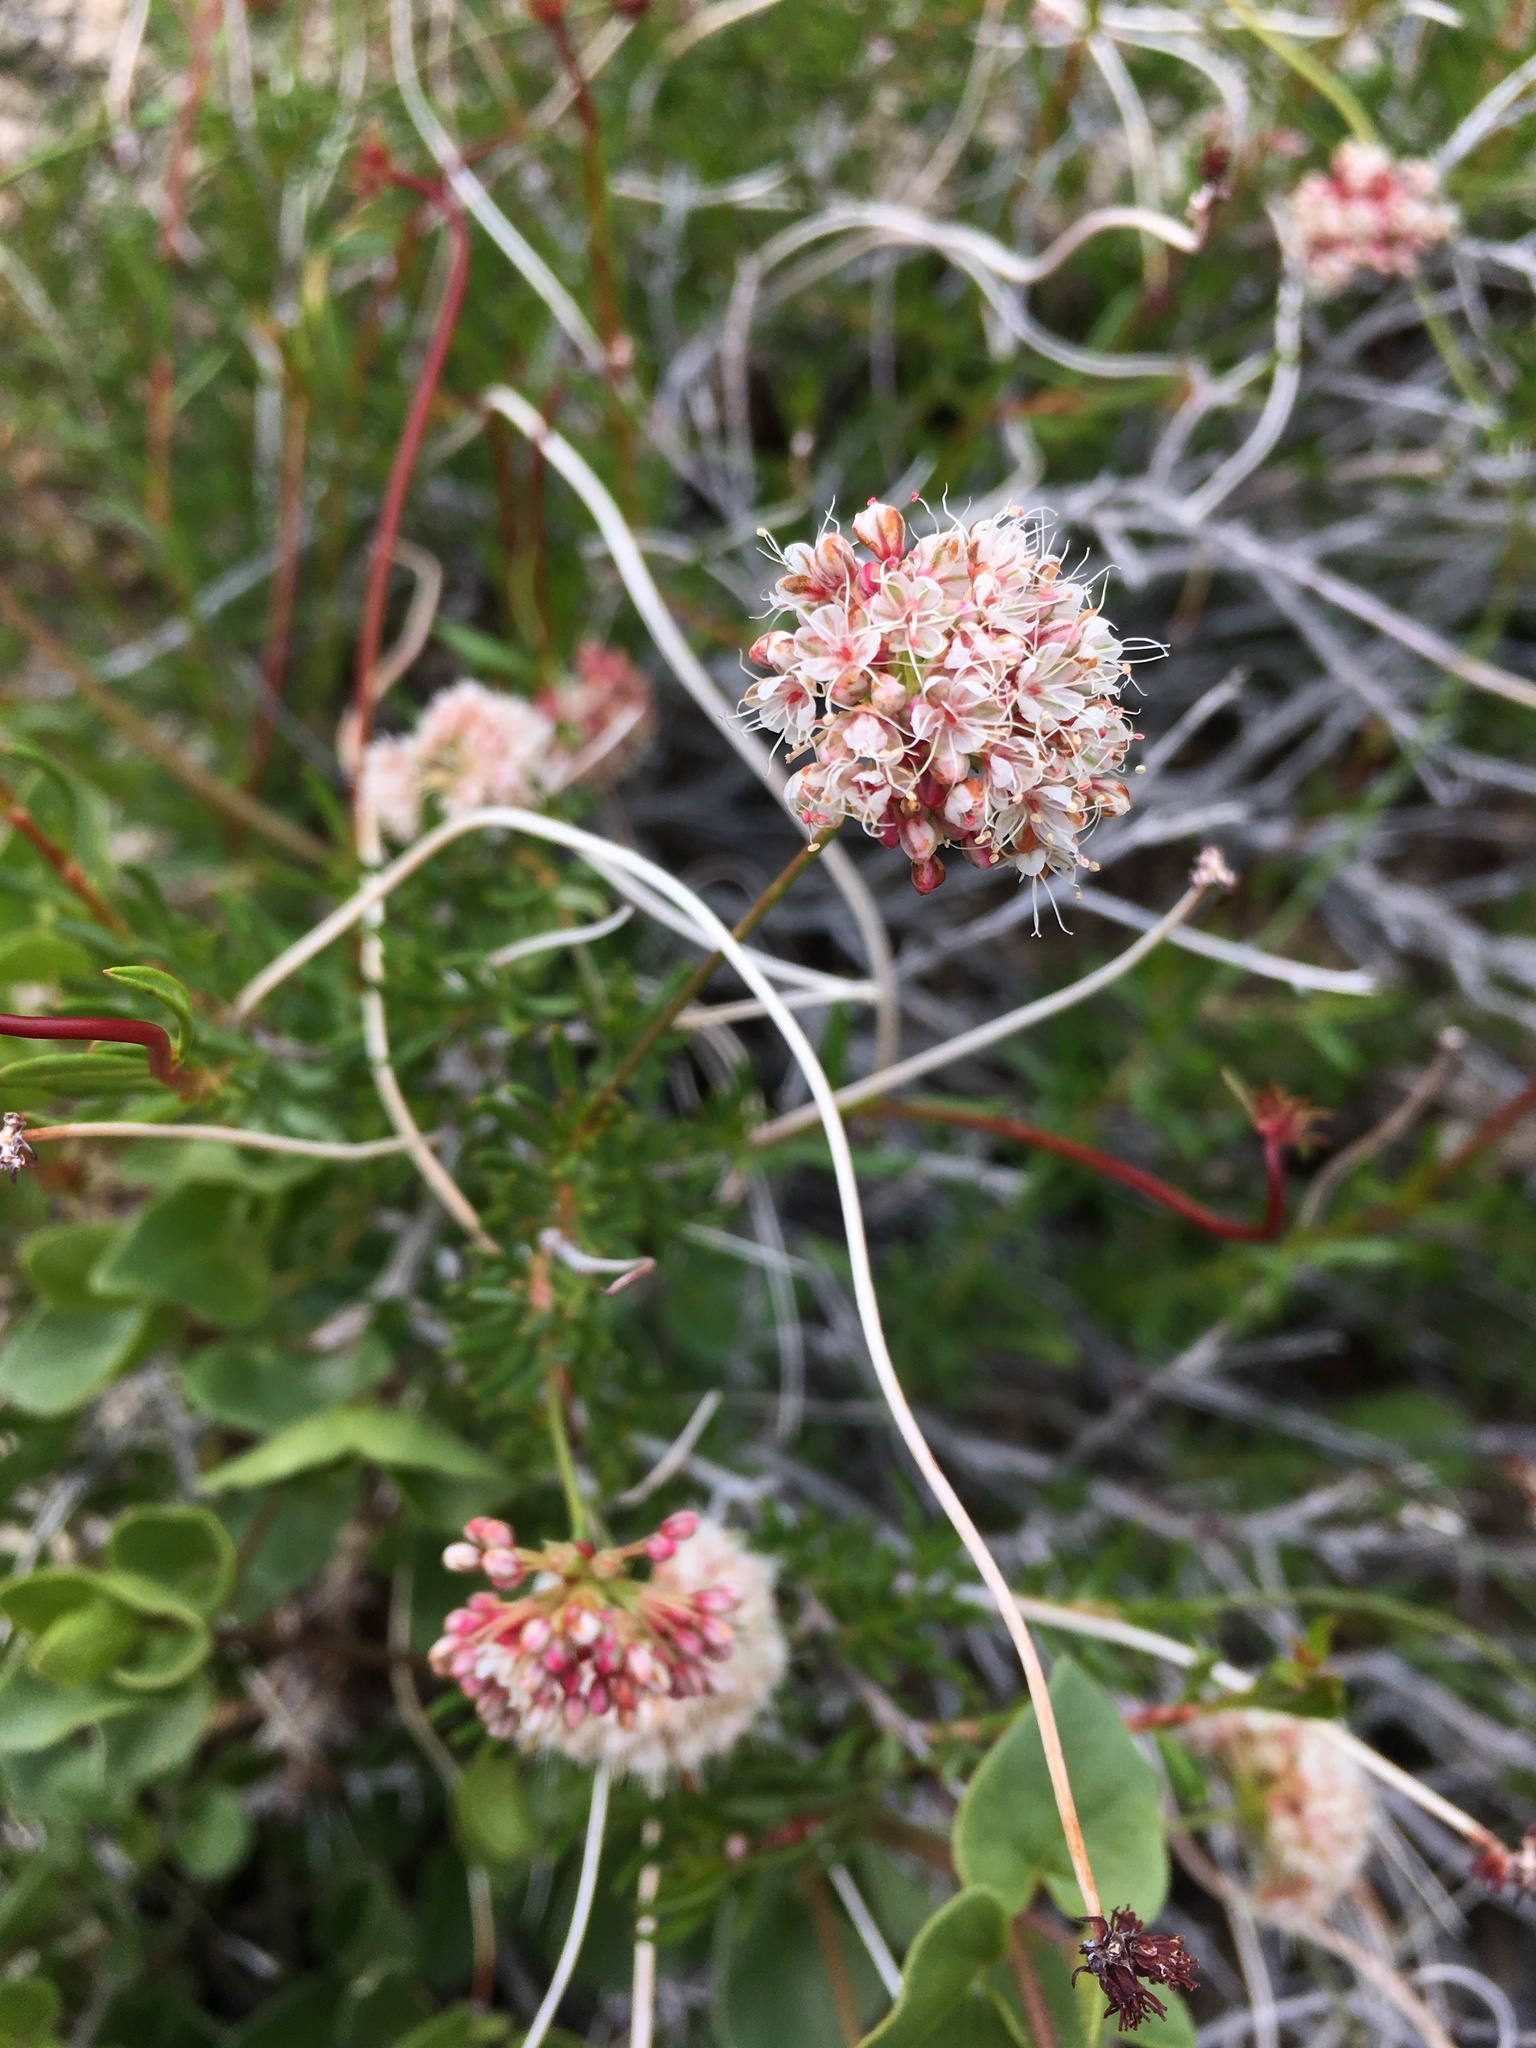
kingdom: Plantae
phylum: Tracheophyta
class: Magnoliopsida
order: Caryophyllales
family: Polygonaceae
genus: Eriogonum
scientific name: Eriogonum fasciculatum
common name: California wild buckwheat
